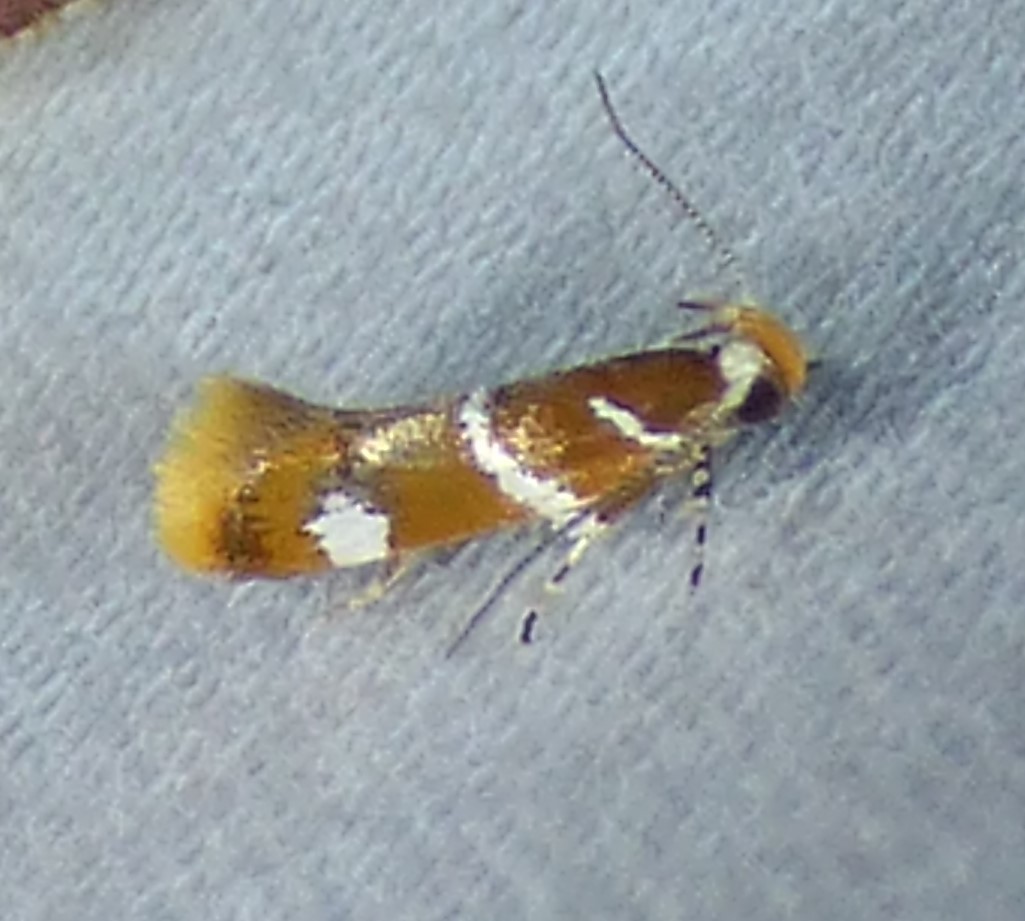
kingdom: Animalia
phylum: Arthropoda
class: Insecta
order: Lepidoptera
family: Oecophoridae
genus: Promalactis
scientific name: Promalactis suzukiella
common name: Moth
